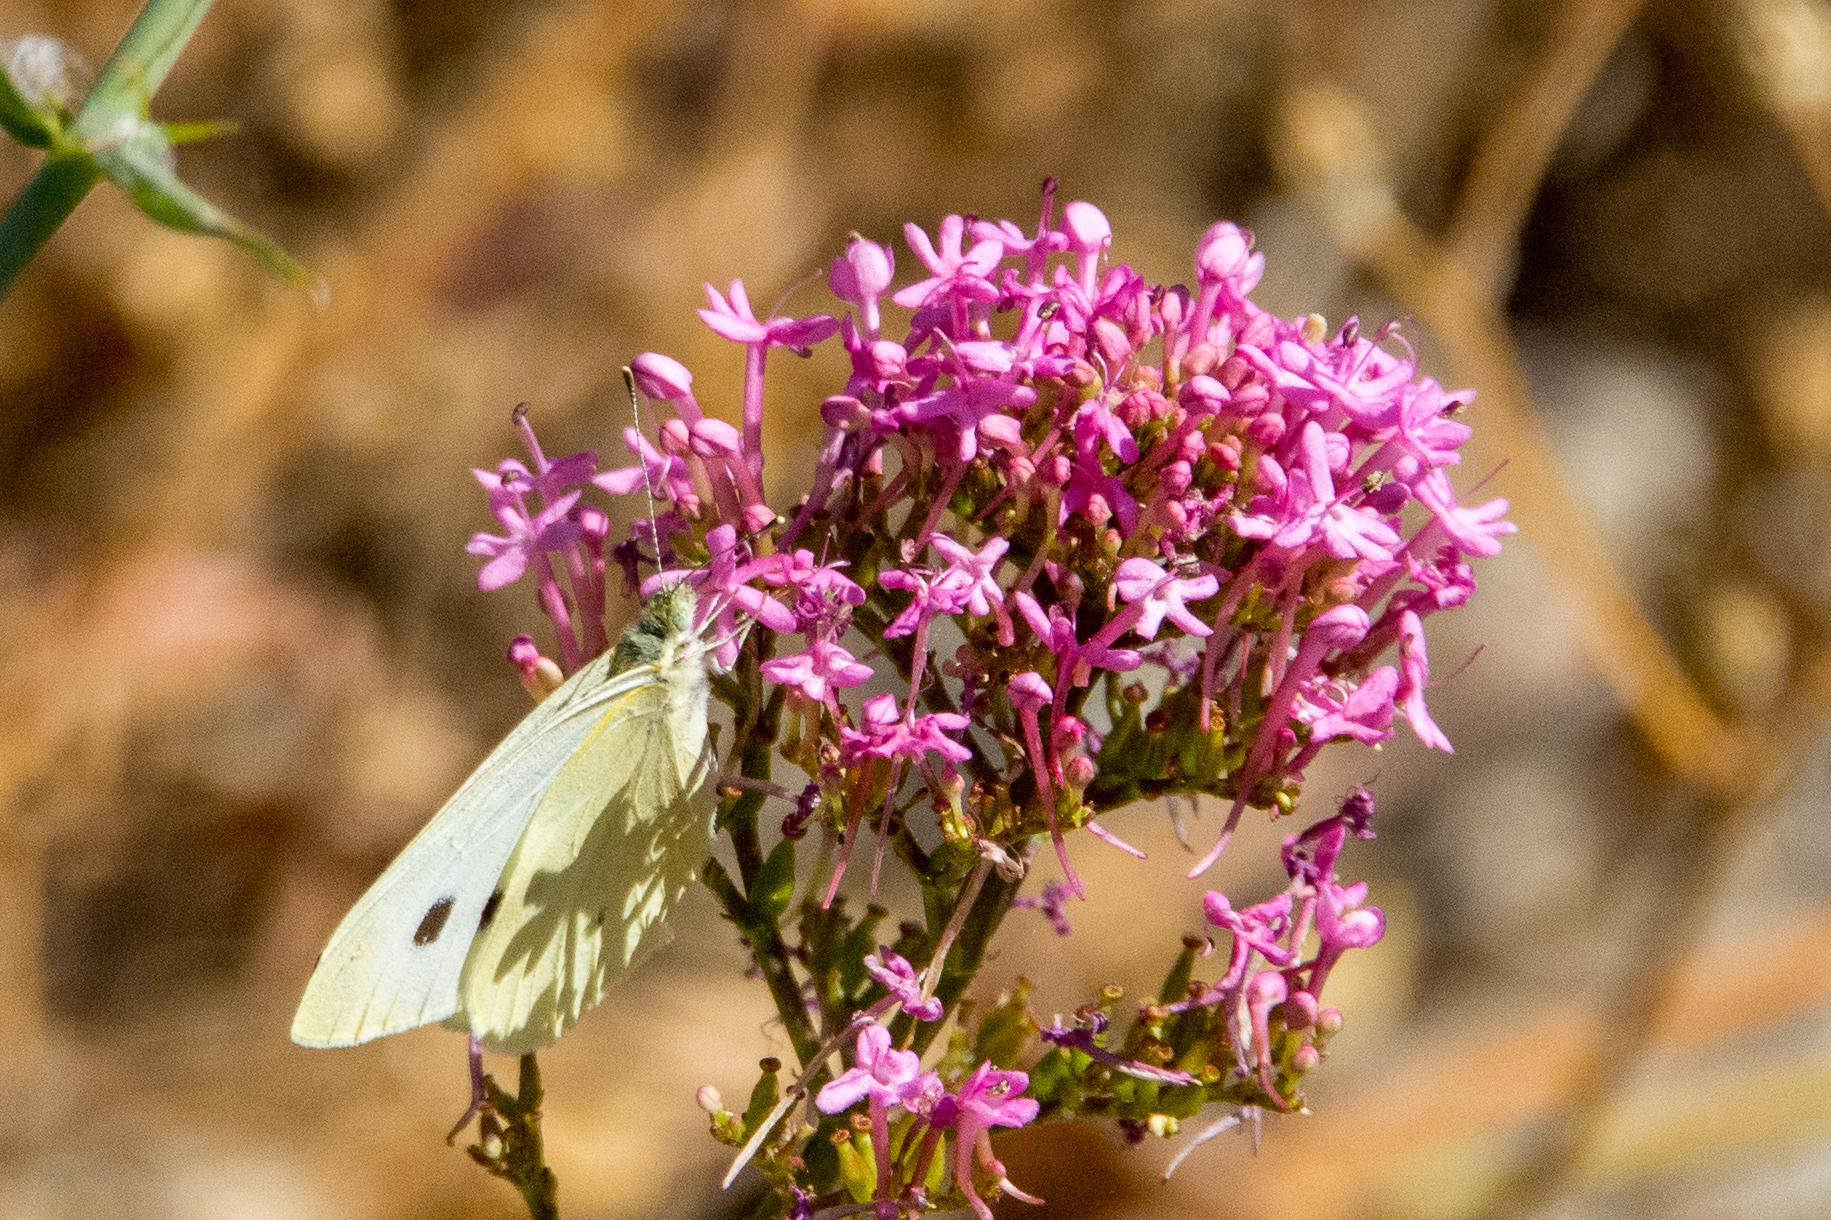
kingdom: Animalia
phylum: Arthropoda
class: Insecta
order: Lepidoptera
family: Pieridae
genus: Pieris
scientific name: Pieris rapae
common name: Small white
